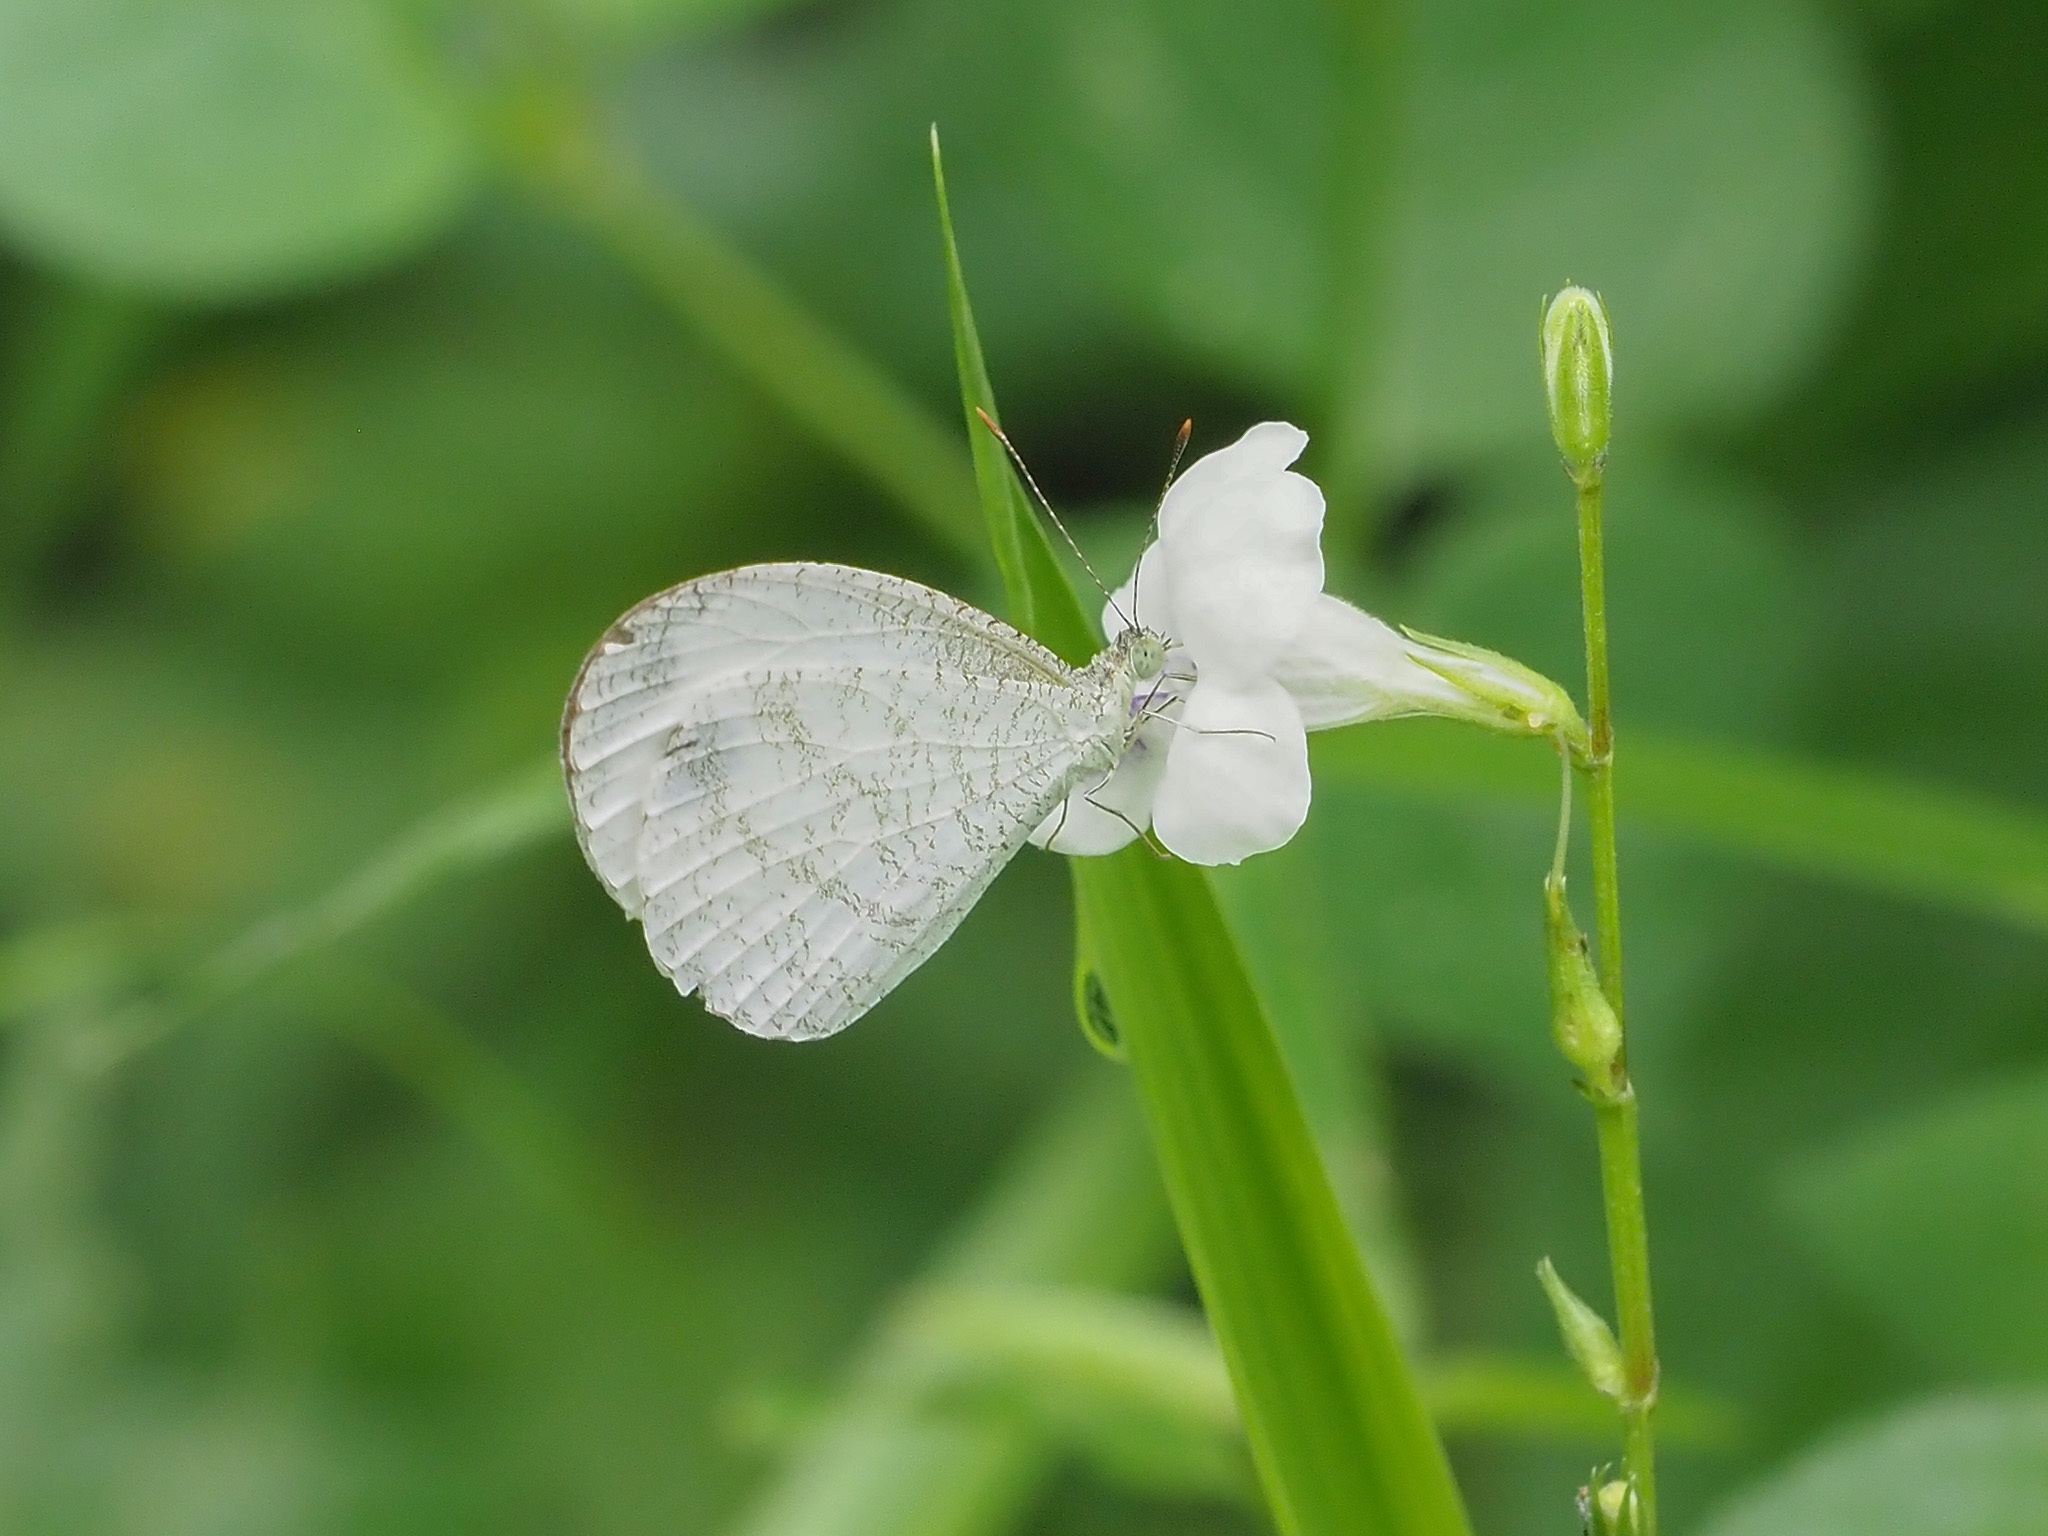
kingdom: Animalia
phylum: Arthropoda
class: Insecta
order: Lepidoptera
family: Pieridae
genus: Leptosia
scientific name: Leptosia nina
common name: Psyche
